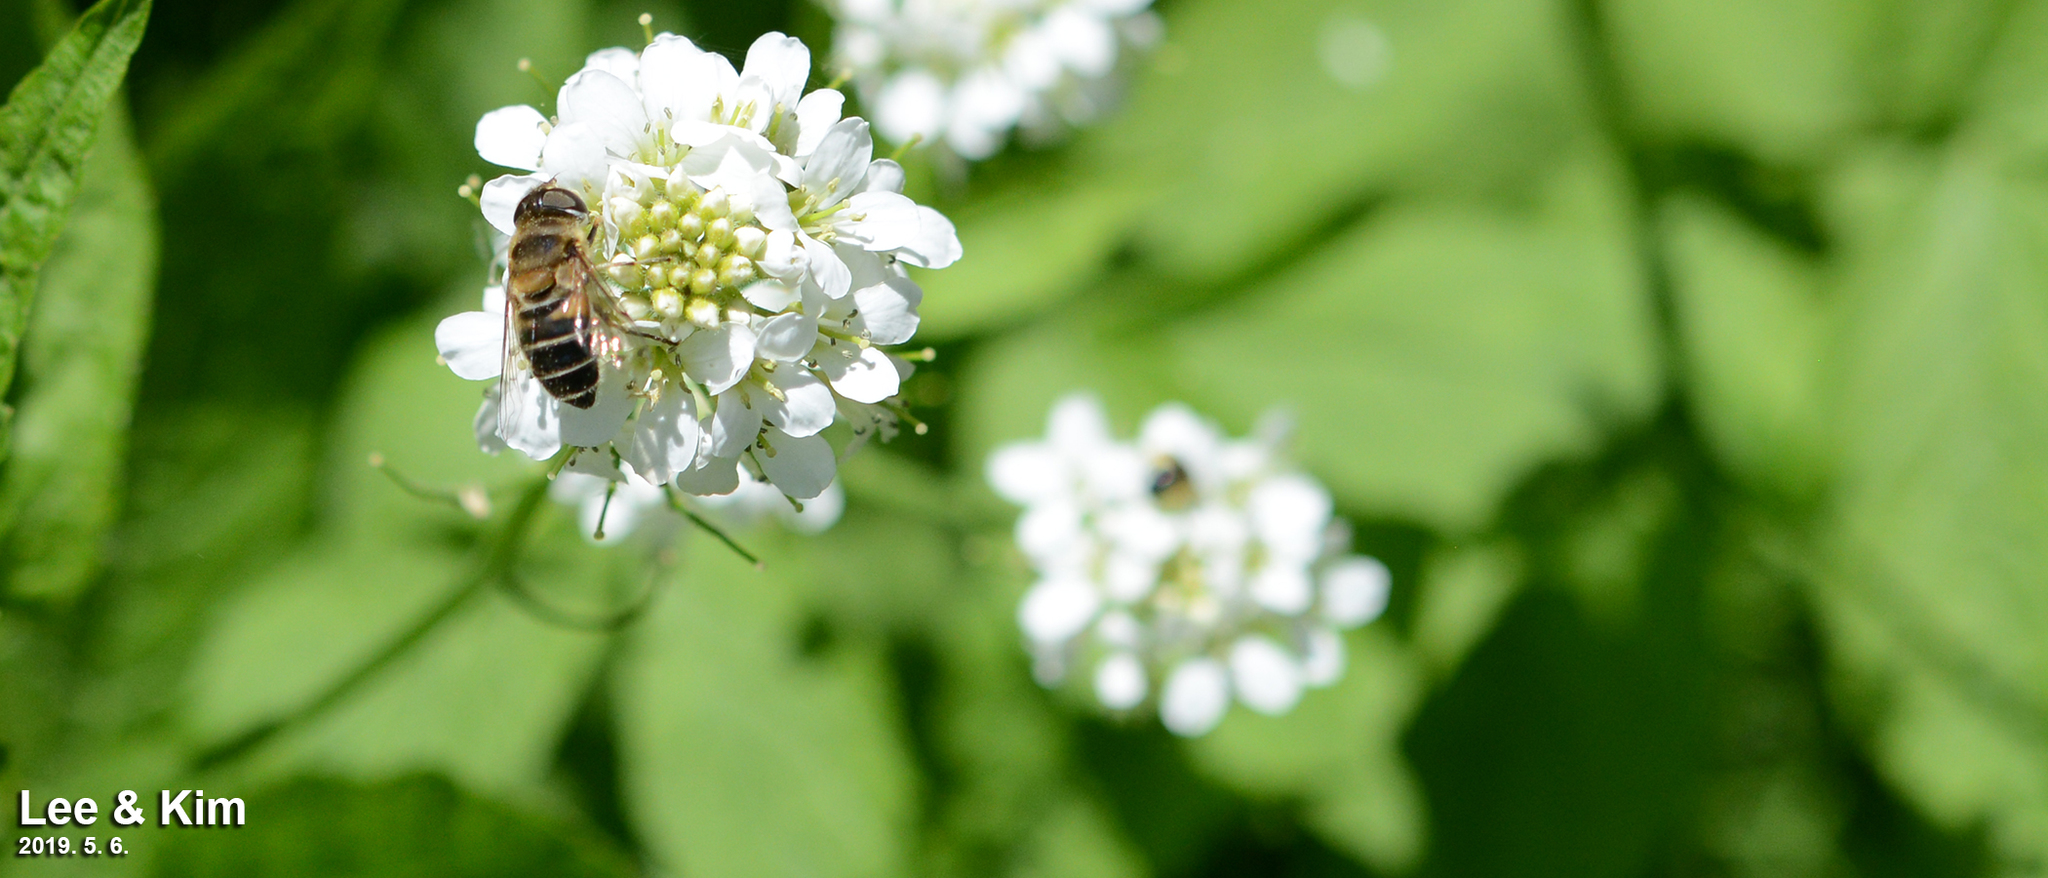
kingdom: Animalia
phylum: Arthropoda
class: Insecta
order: Diptera
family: Syrphidae
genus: Eristalis
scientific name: Eristalis
